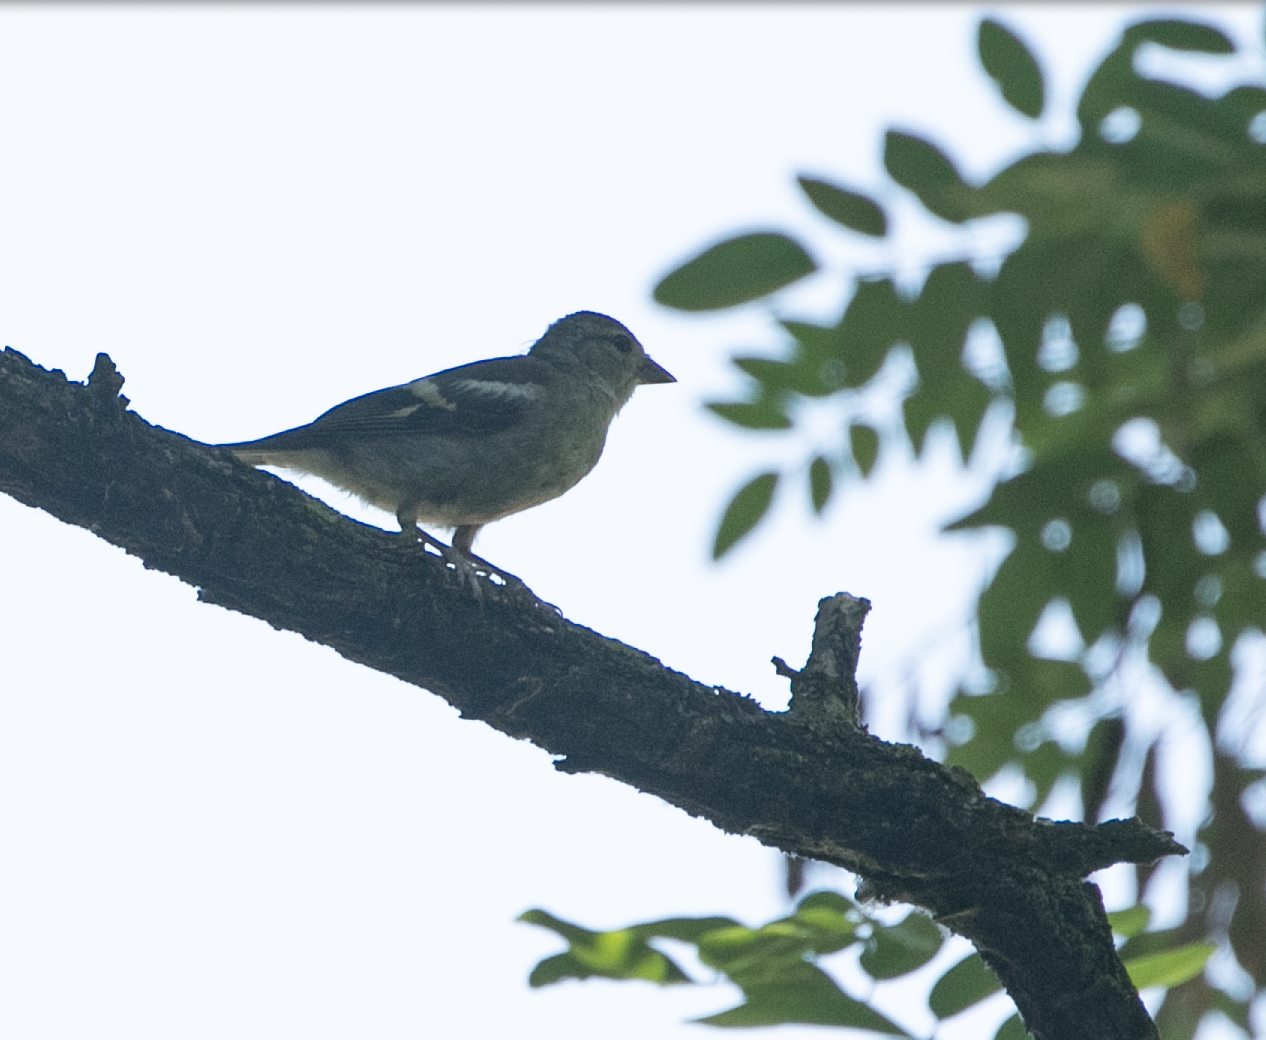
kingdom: Animalia
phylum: Chordata
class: Aves
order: Passeriformes
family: Fringillidae
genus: Fringilla
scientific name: Fringilla coelebs
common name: Common chaffinch
